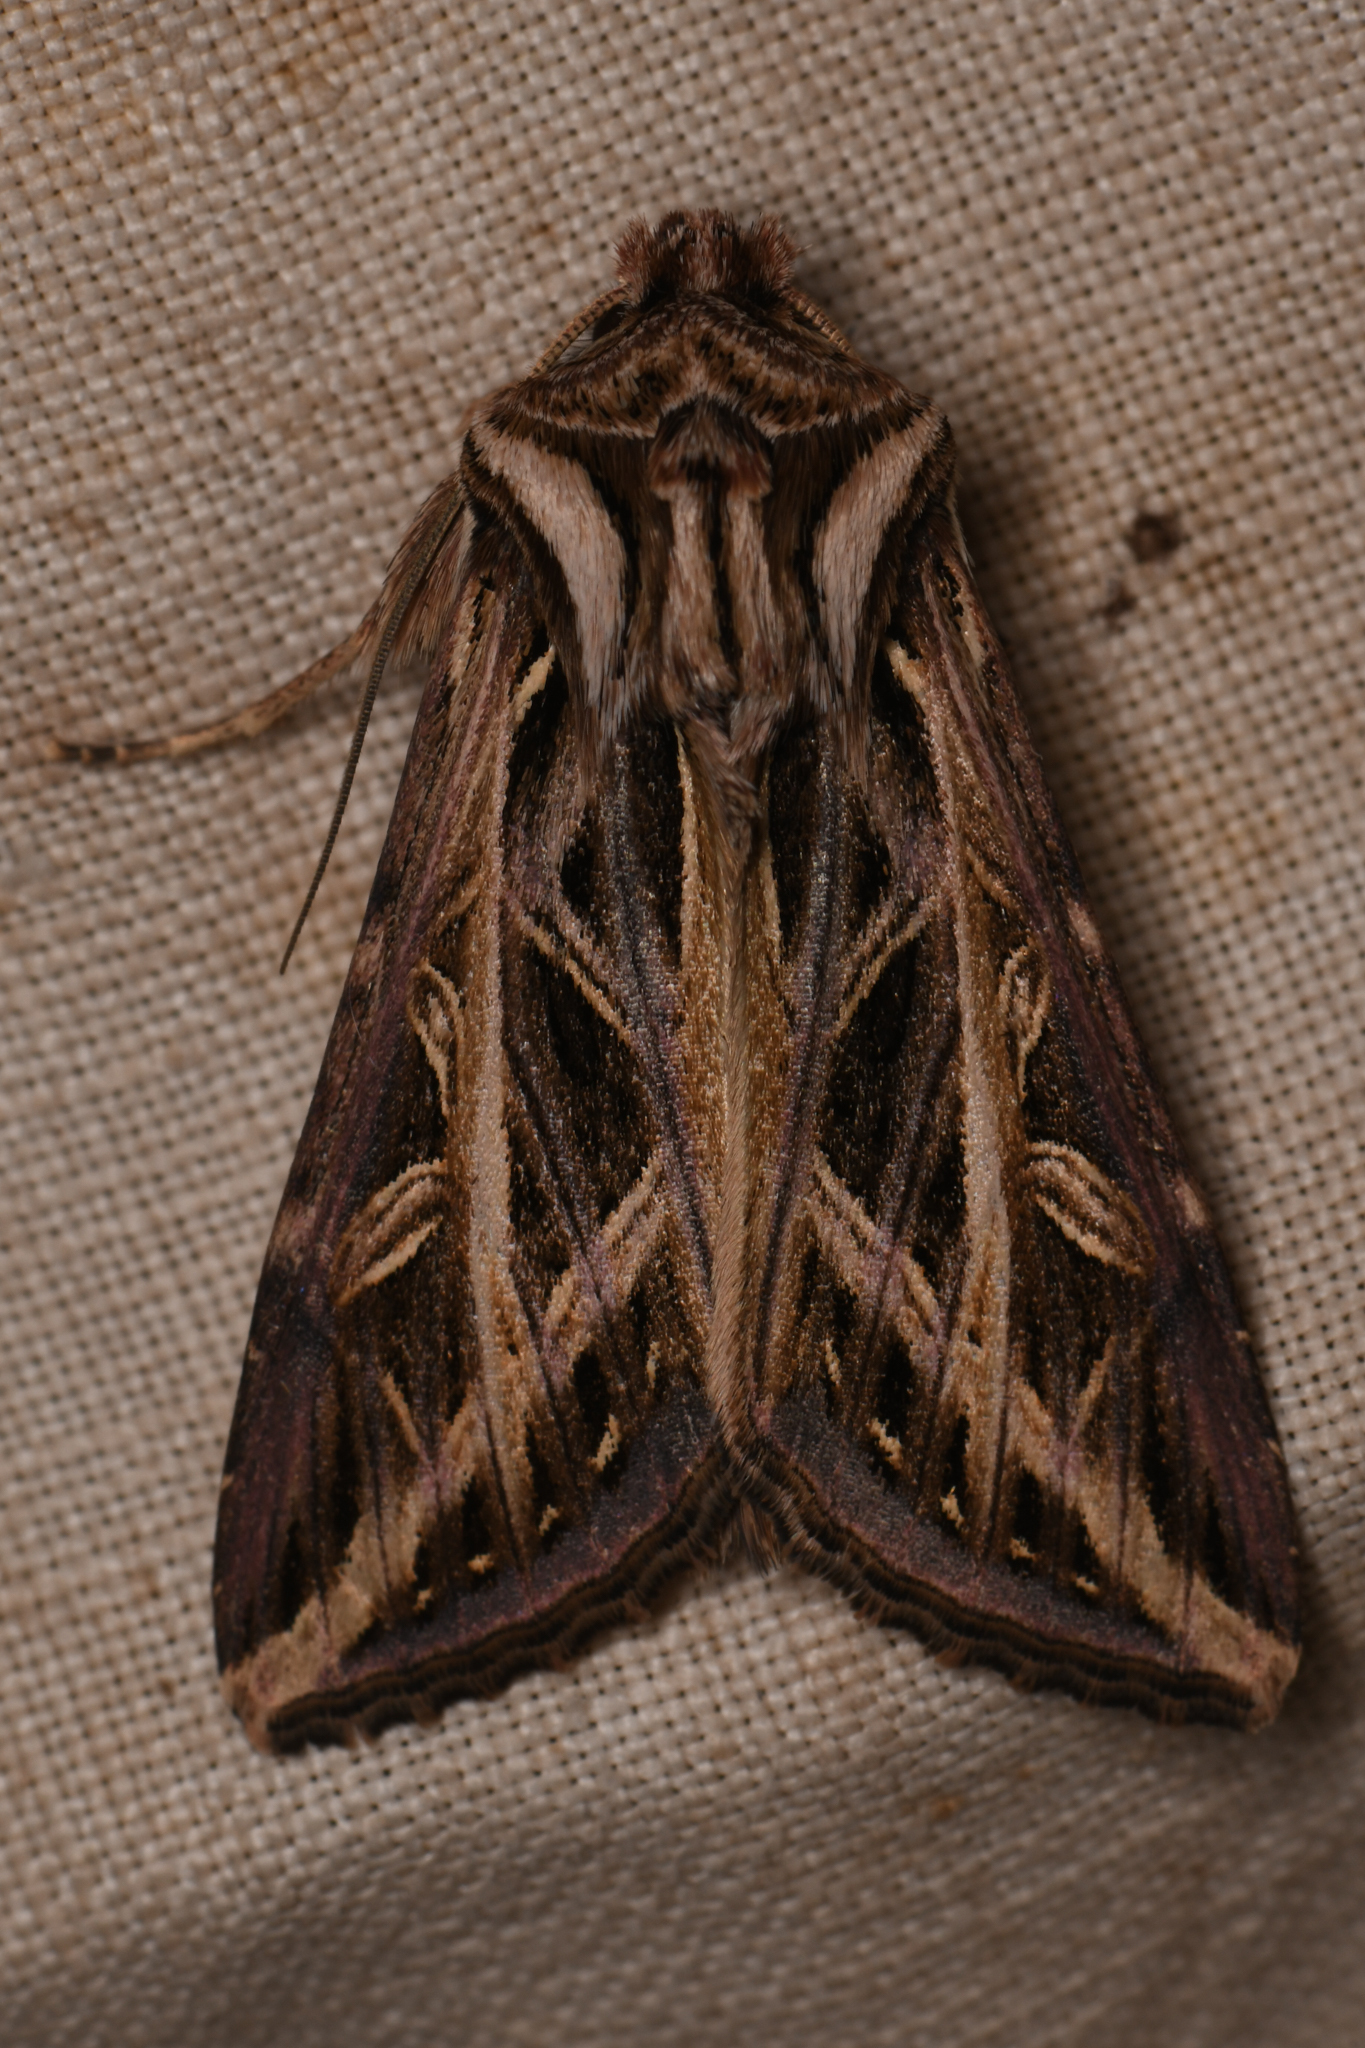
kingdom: Animalia
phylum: Arthropoda
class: Insecta
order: Lepidoptera
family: Noctuidae
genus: Dargida
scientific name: Dargida procinctus
